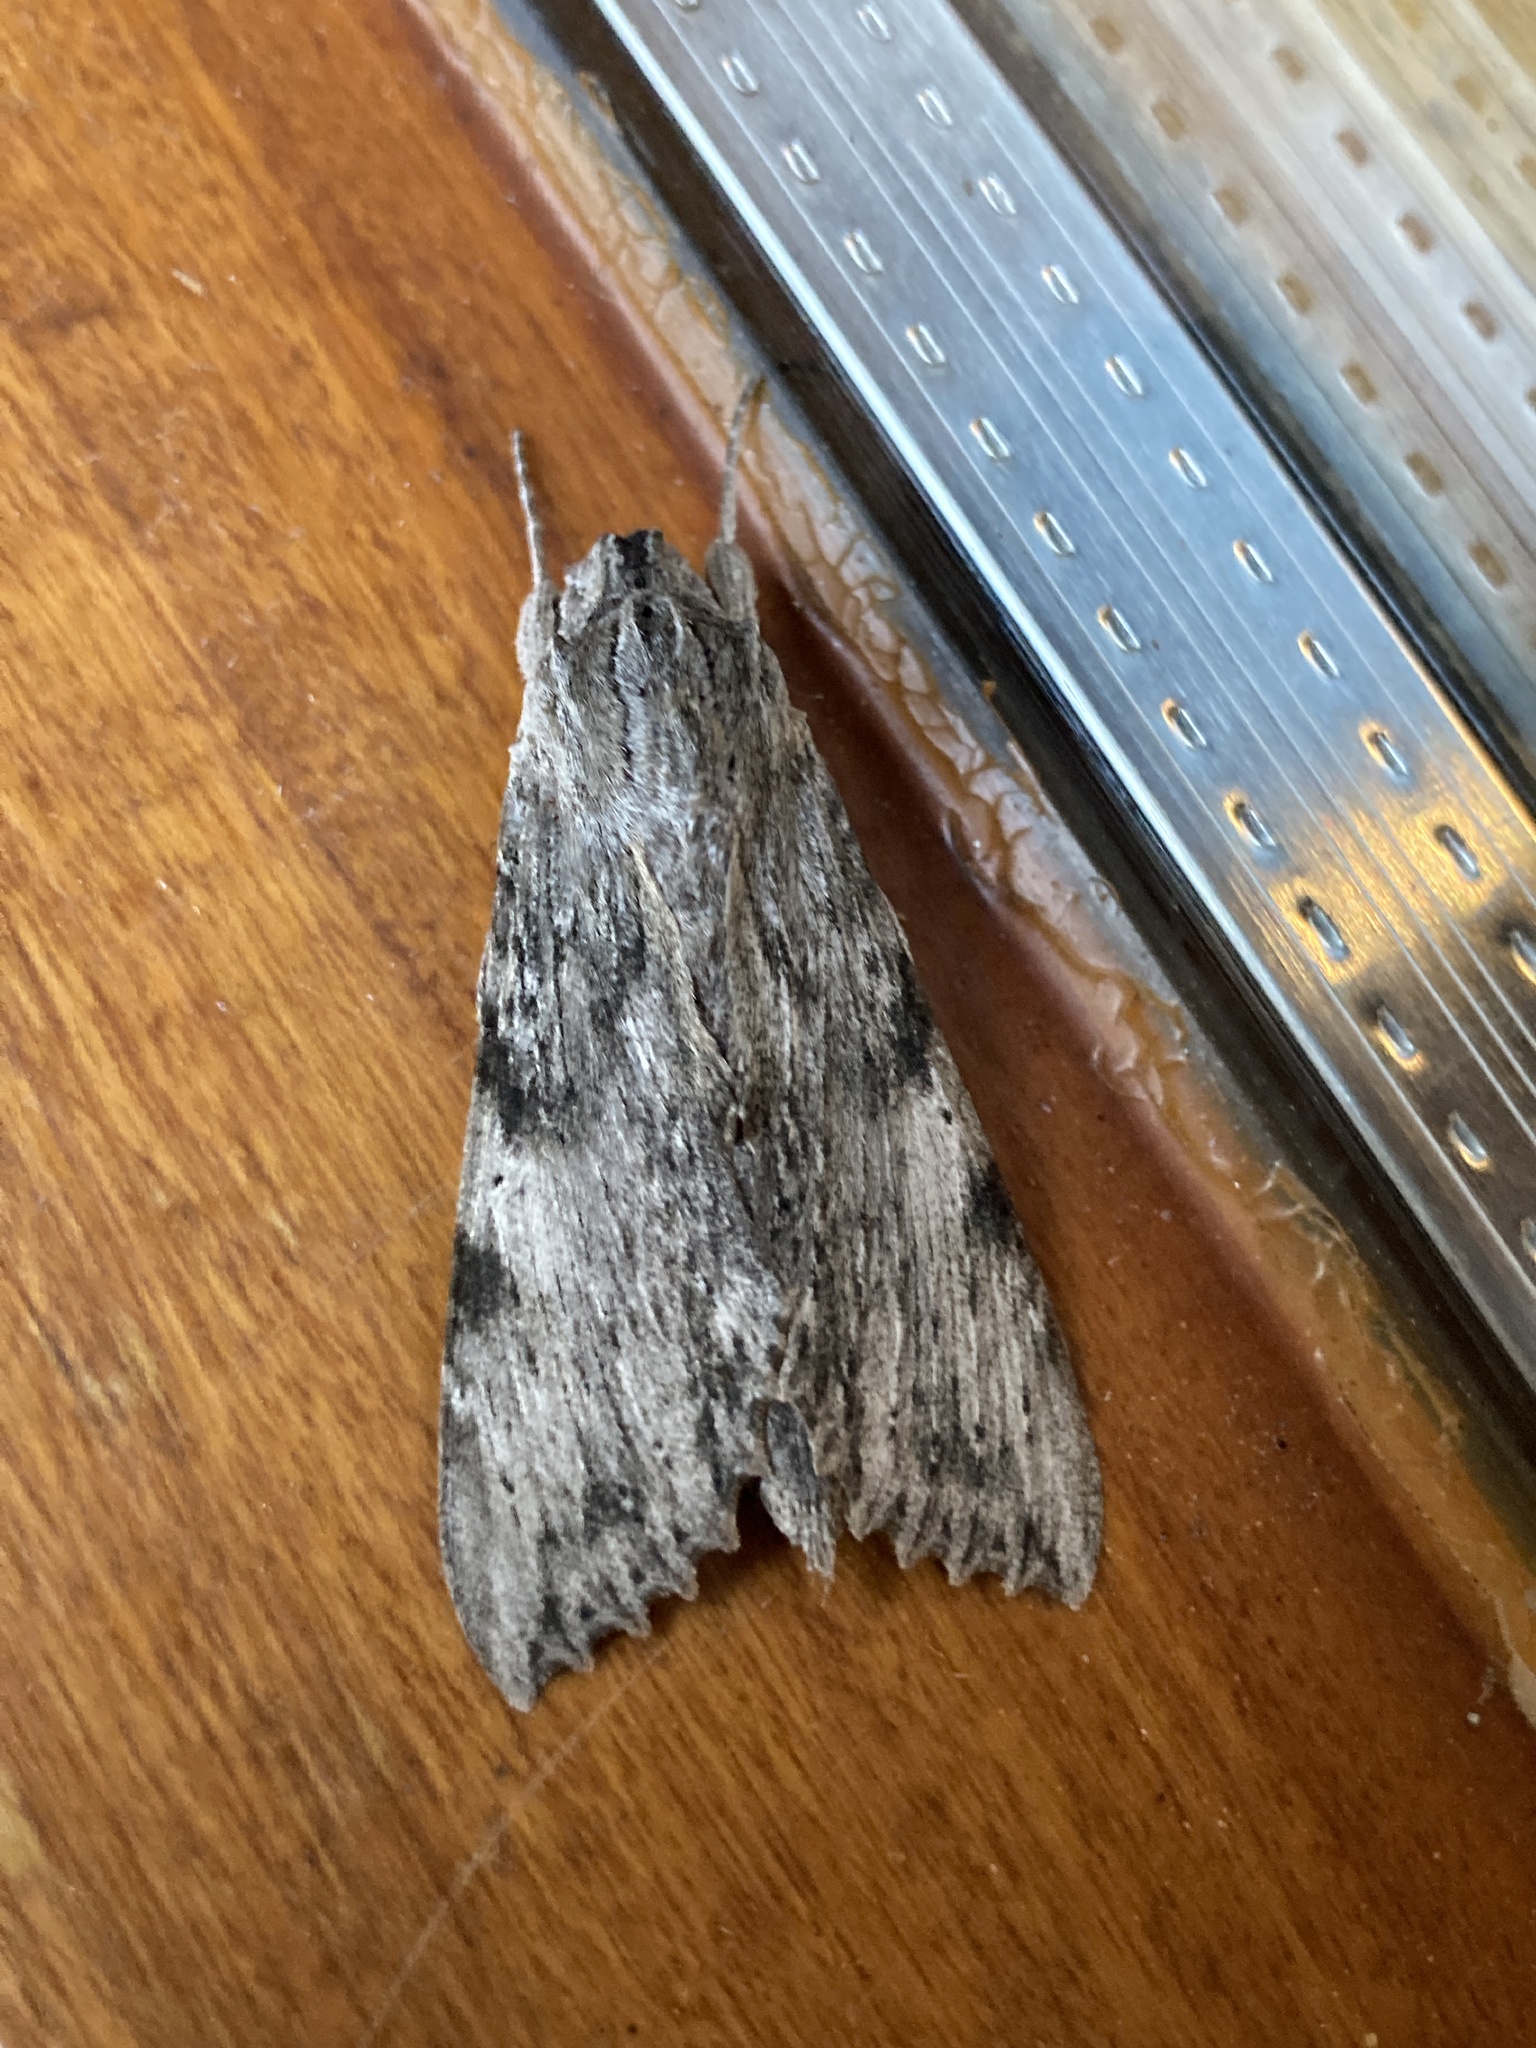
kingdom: Animalia
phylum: Arthropoda
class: Insecta
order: Lepidoptera
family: Sphingidae
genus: Erinnyis
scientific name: Erinnyis obscura
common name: Obscure sphinx
